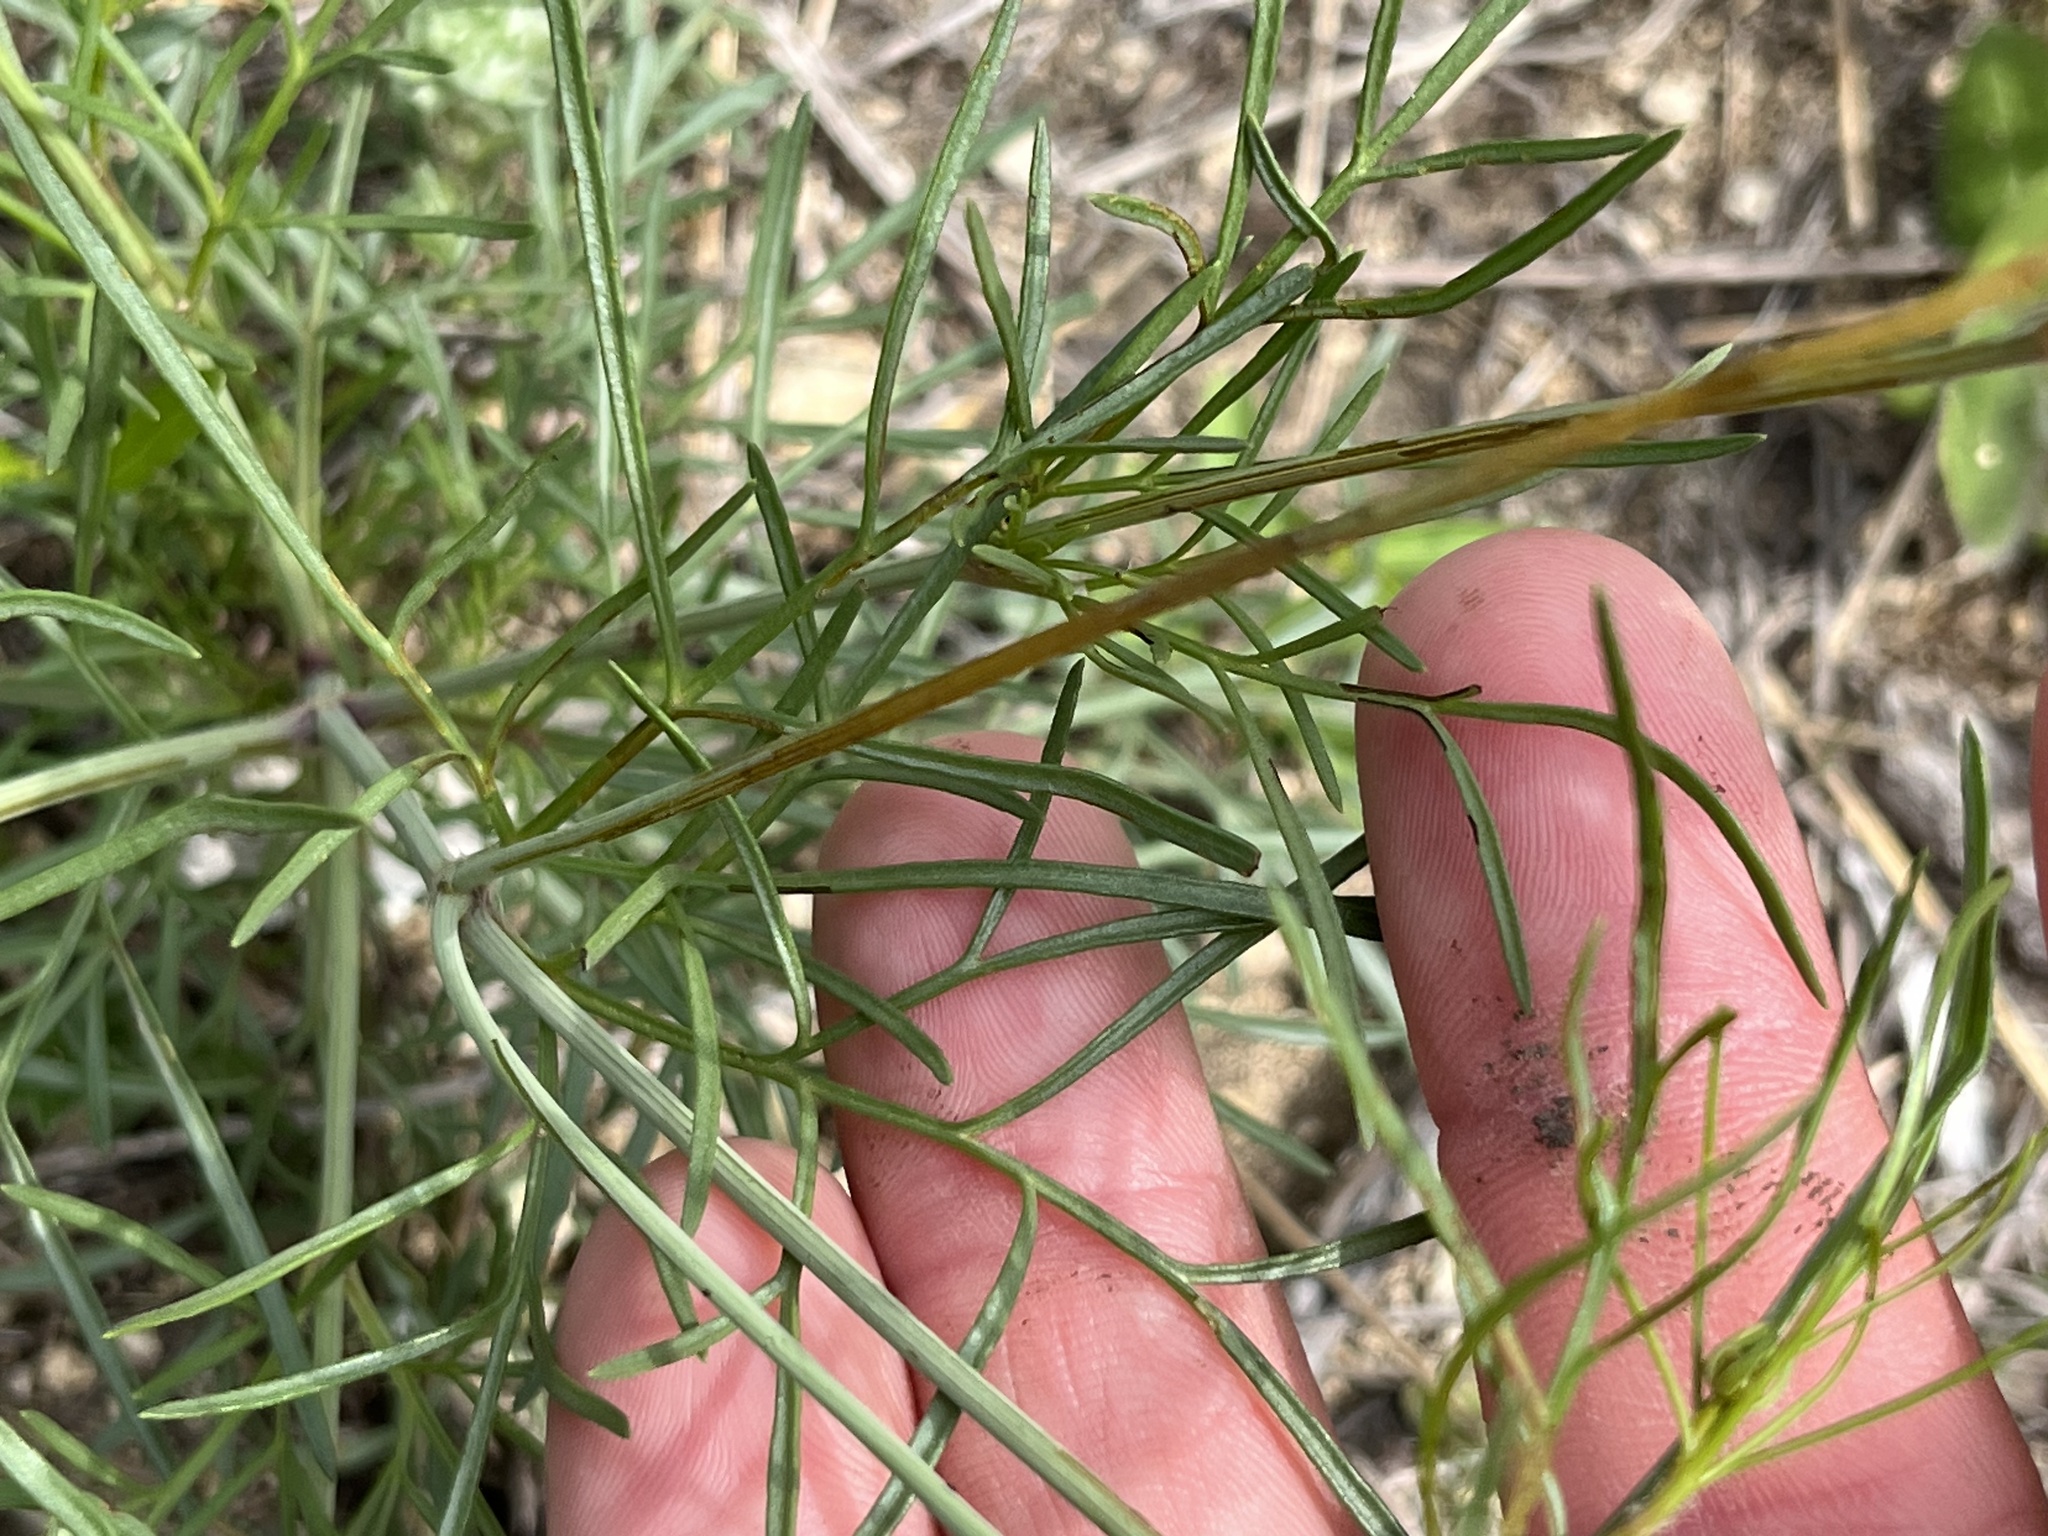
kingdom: Plantae
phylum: Tracheophyta
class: Magnoliopsida
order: Asterales
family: Asteraceae
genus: Thelesperma
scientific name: Thelesperma filifolium
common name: Stiff greenthread
